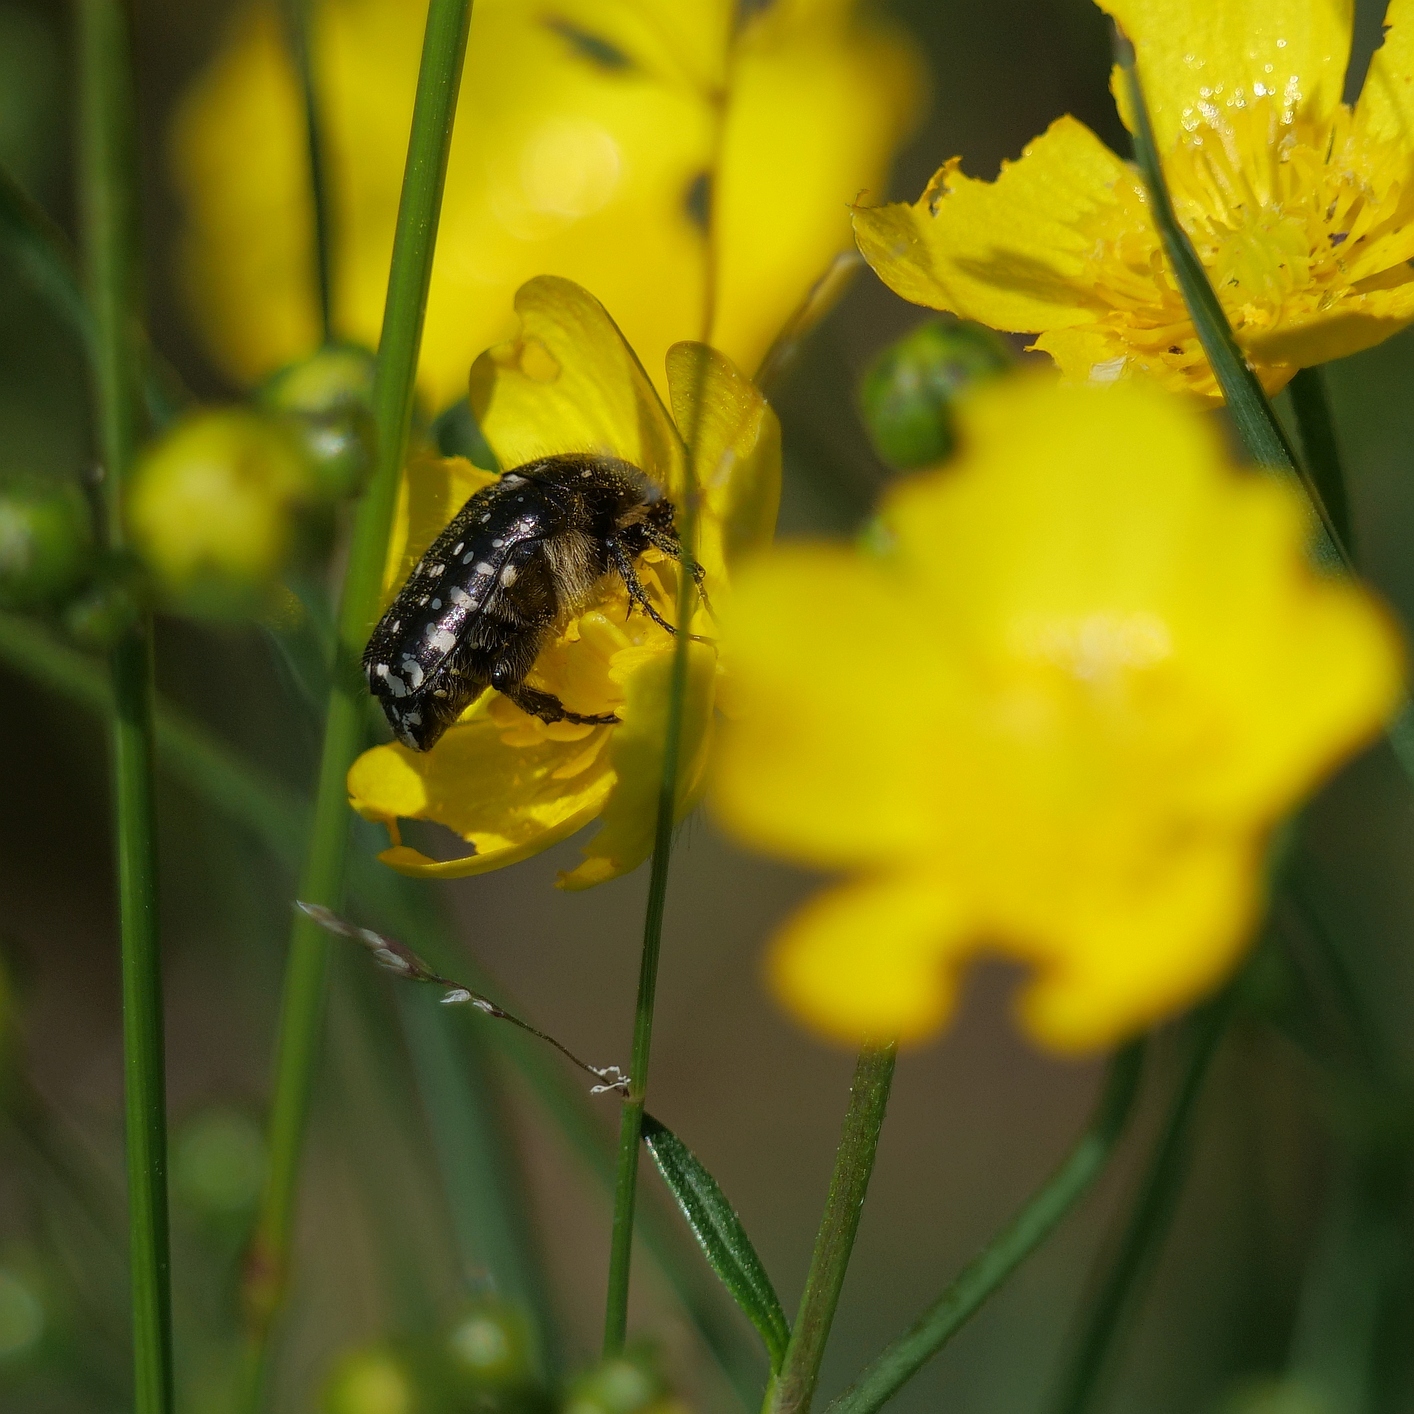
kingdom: Animalia
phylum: Arthropoda
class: Insecta
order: Coleoptera
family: Scarabaeidae
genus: Oxythyrea
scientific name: Oxythyrea funesta
